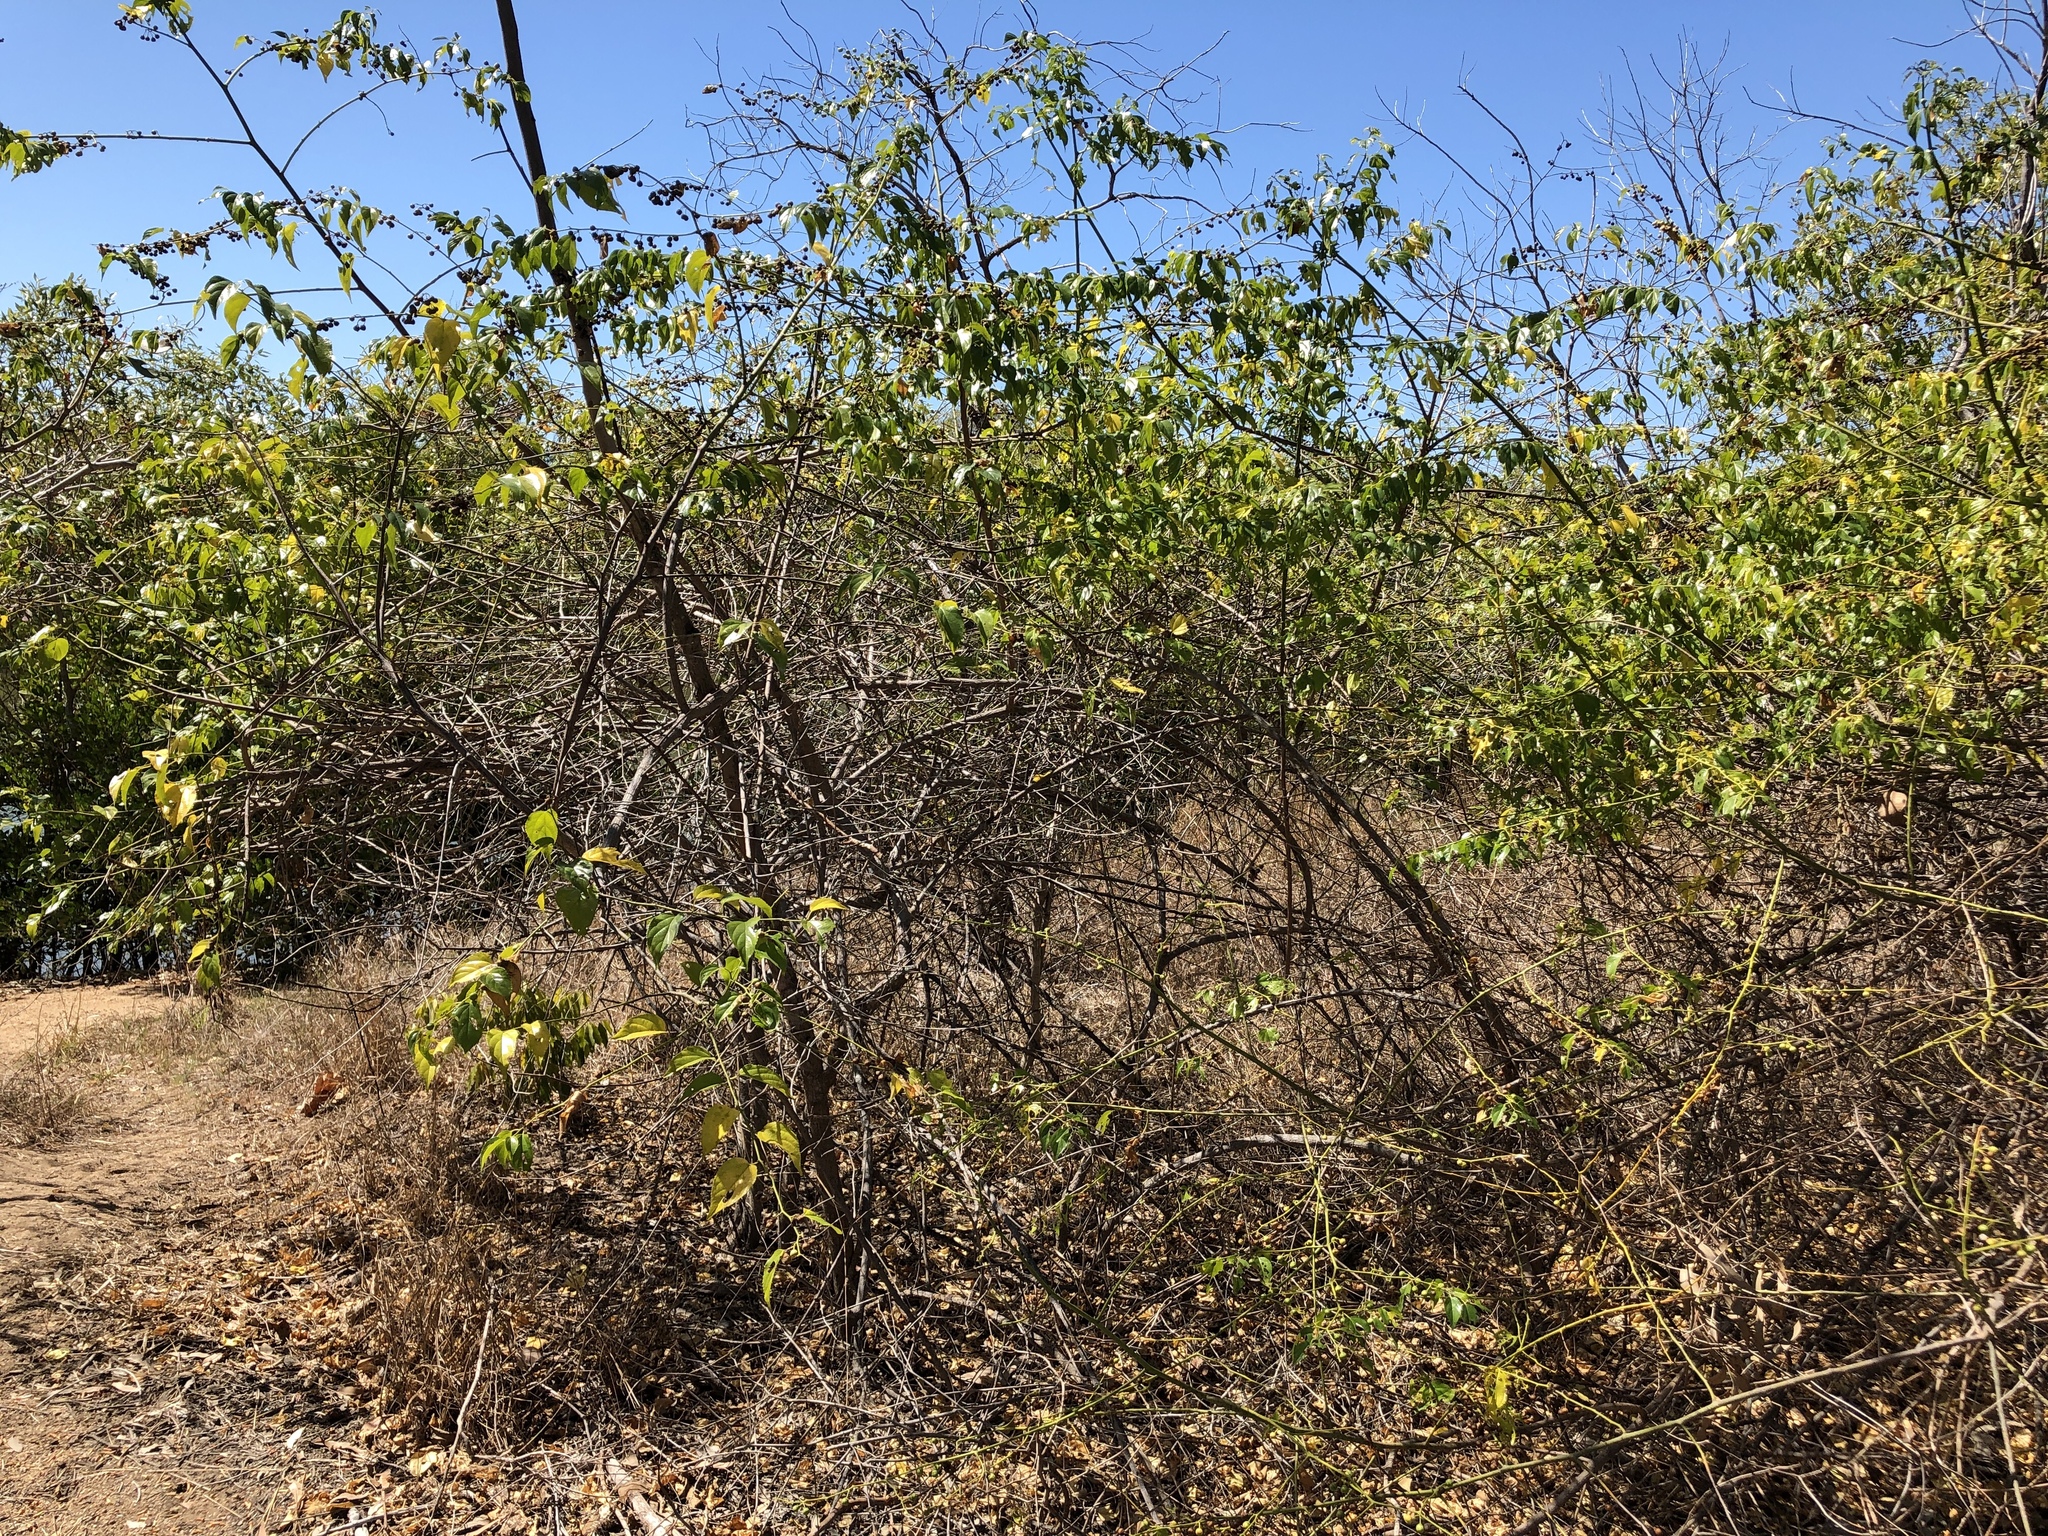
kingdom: Plantae
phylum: Tracheophyta
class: Magnoliopsida
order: Rosales
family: Rhamnaceae
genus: Colubrina
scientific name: Colubrina asiatica
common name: Asian nakedwood
